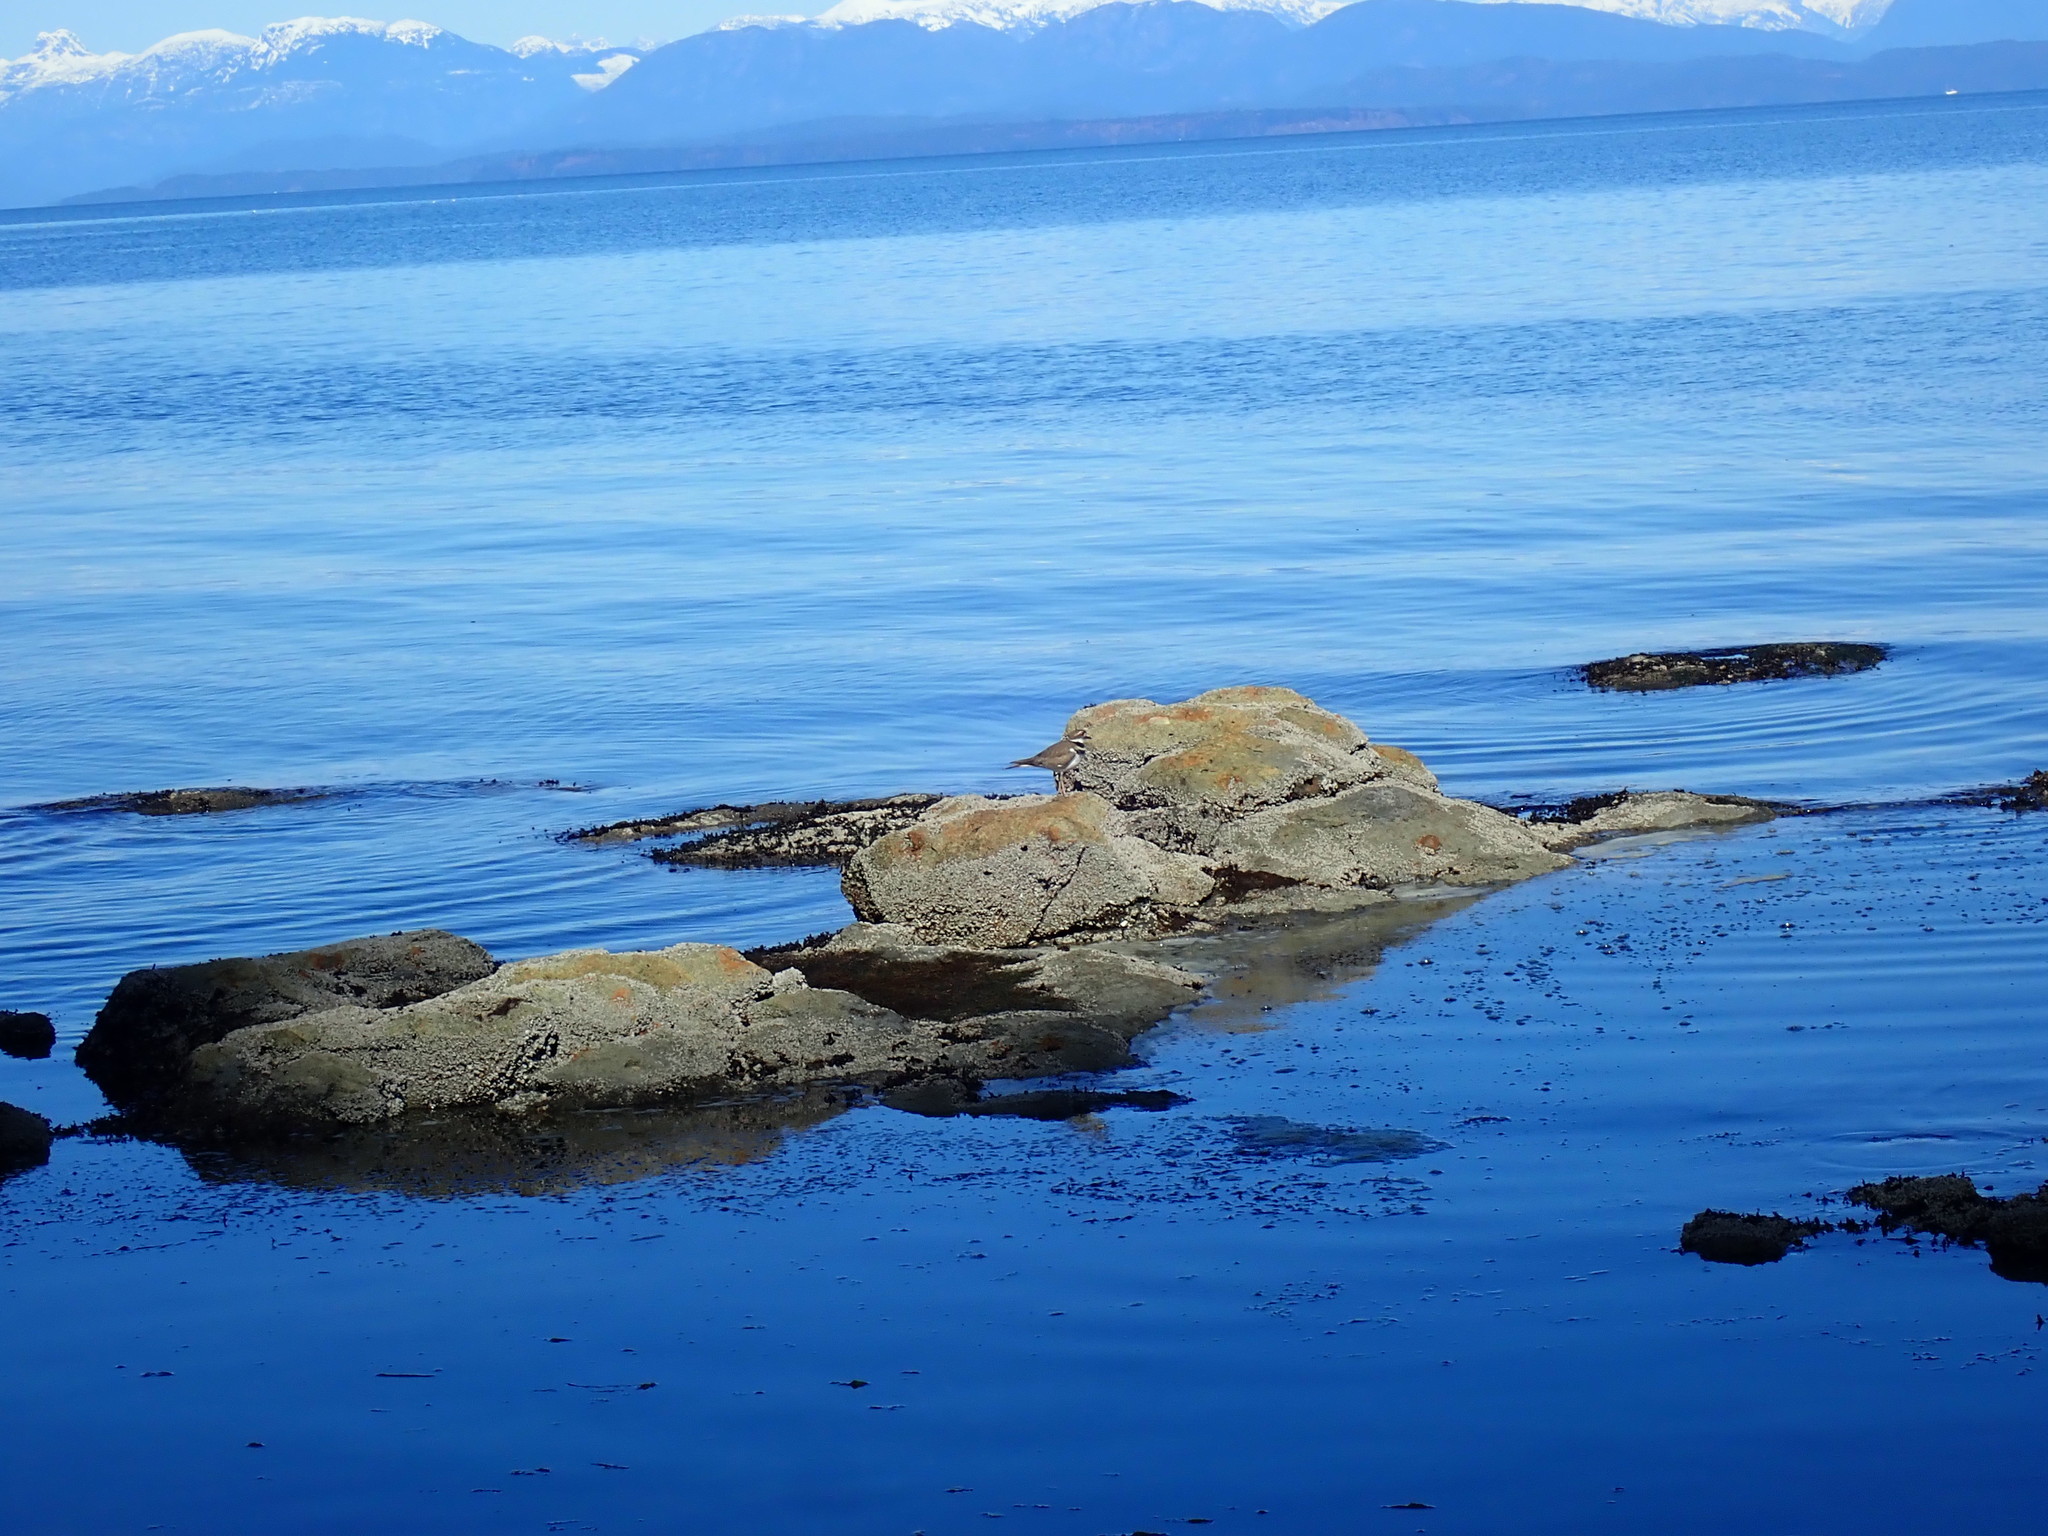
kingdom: Animalia
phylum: Chordata
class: Aves
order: Charadriiformes
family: Charadriidae
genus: Charadrius
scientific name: Charadrius vociferus
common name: Killdeer
